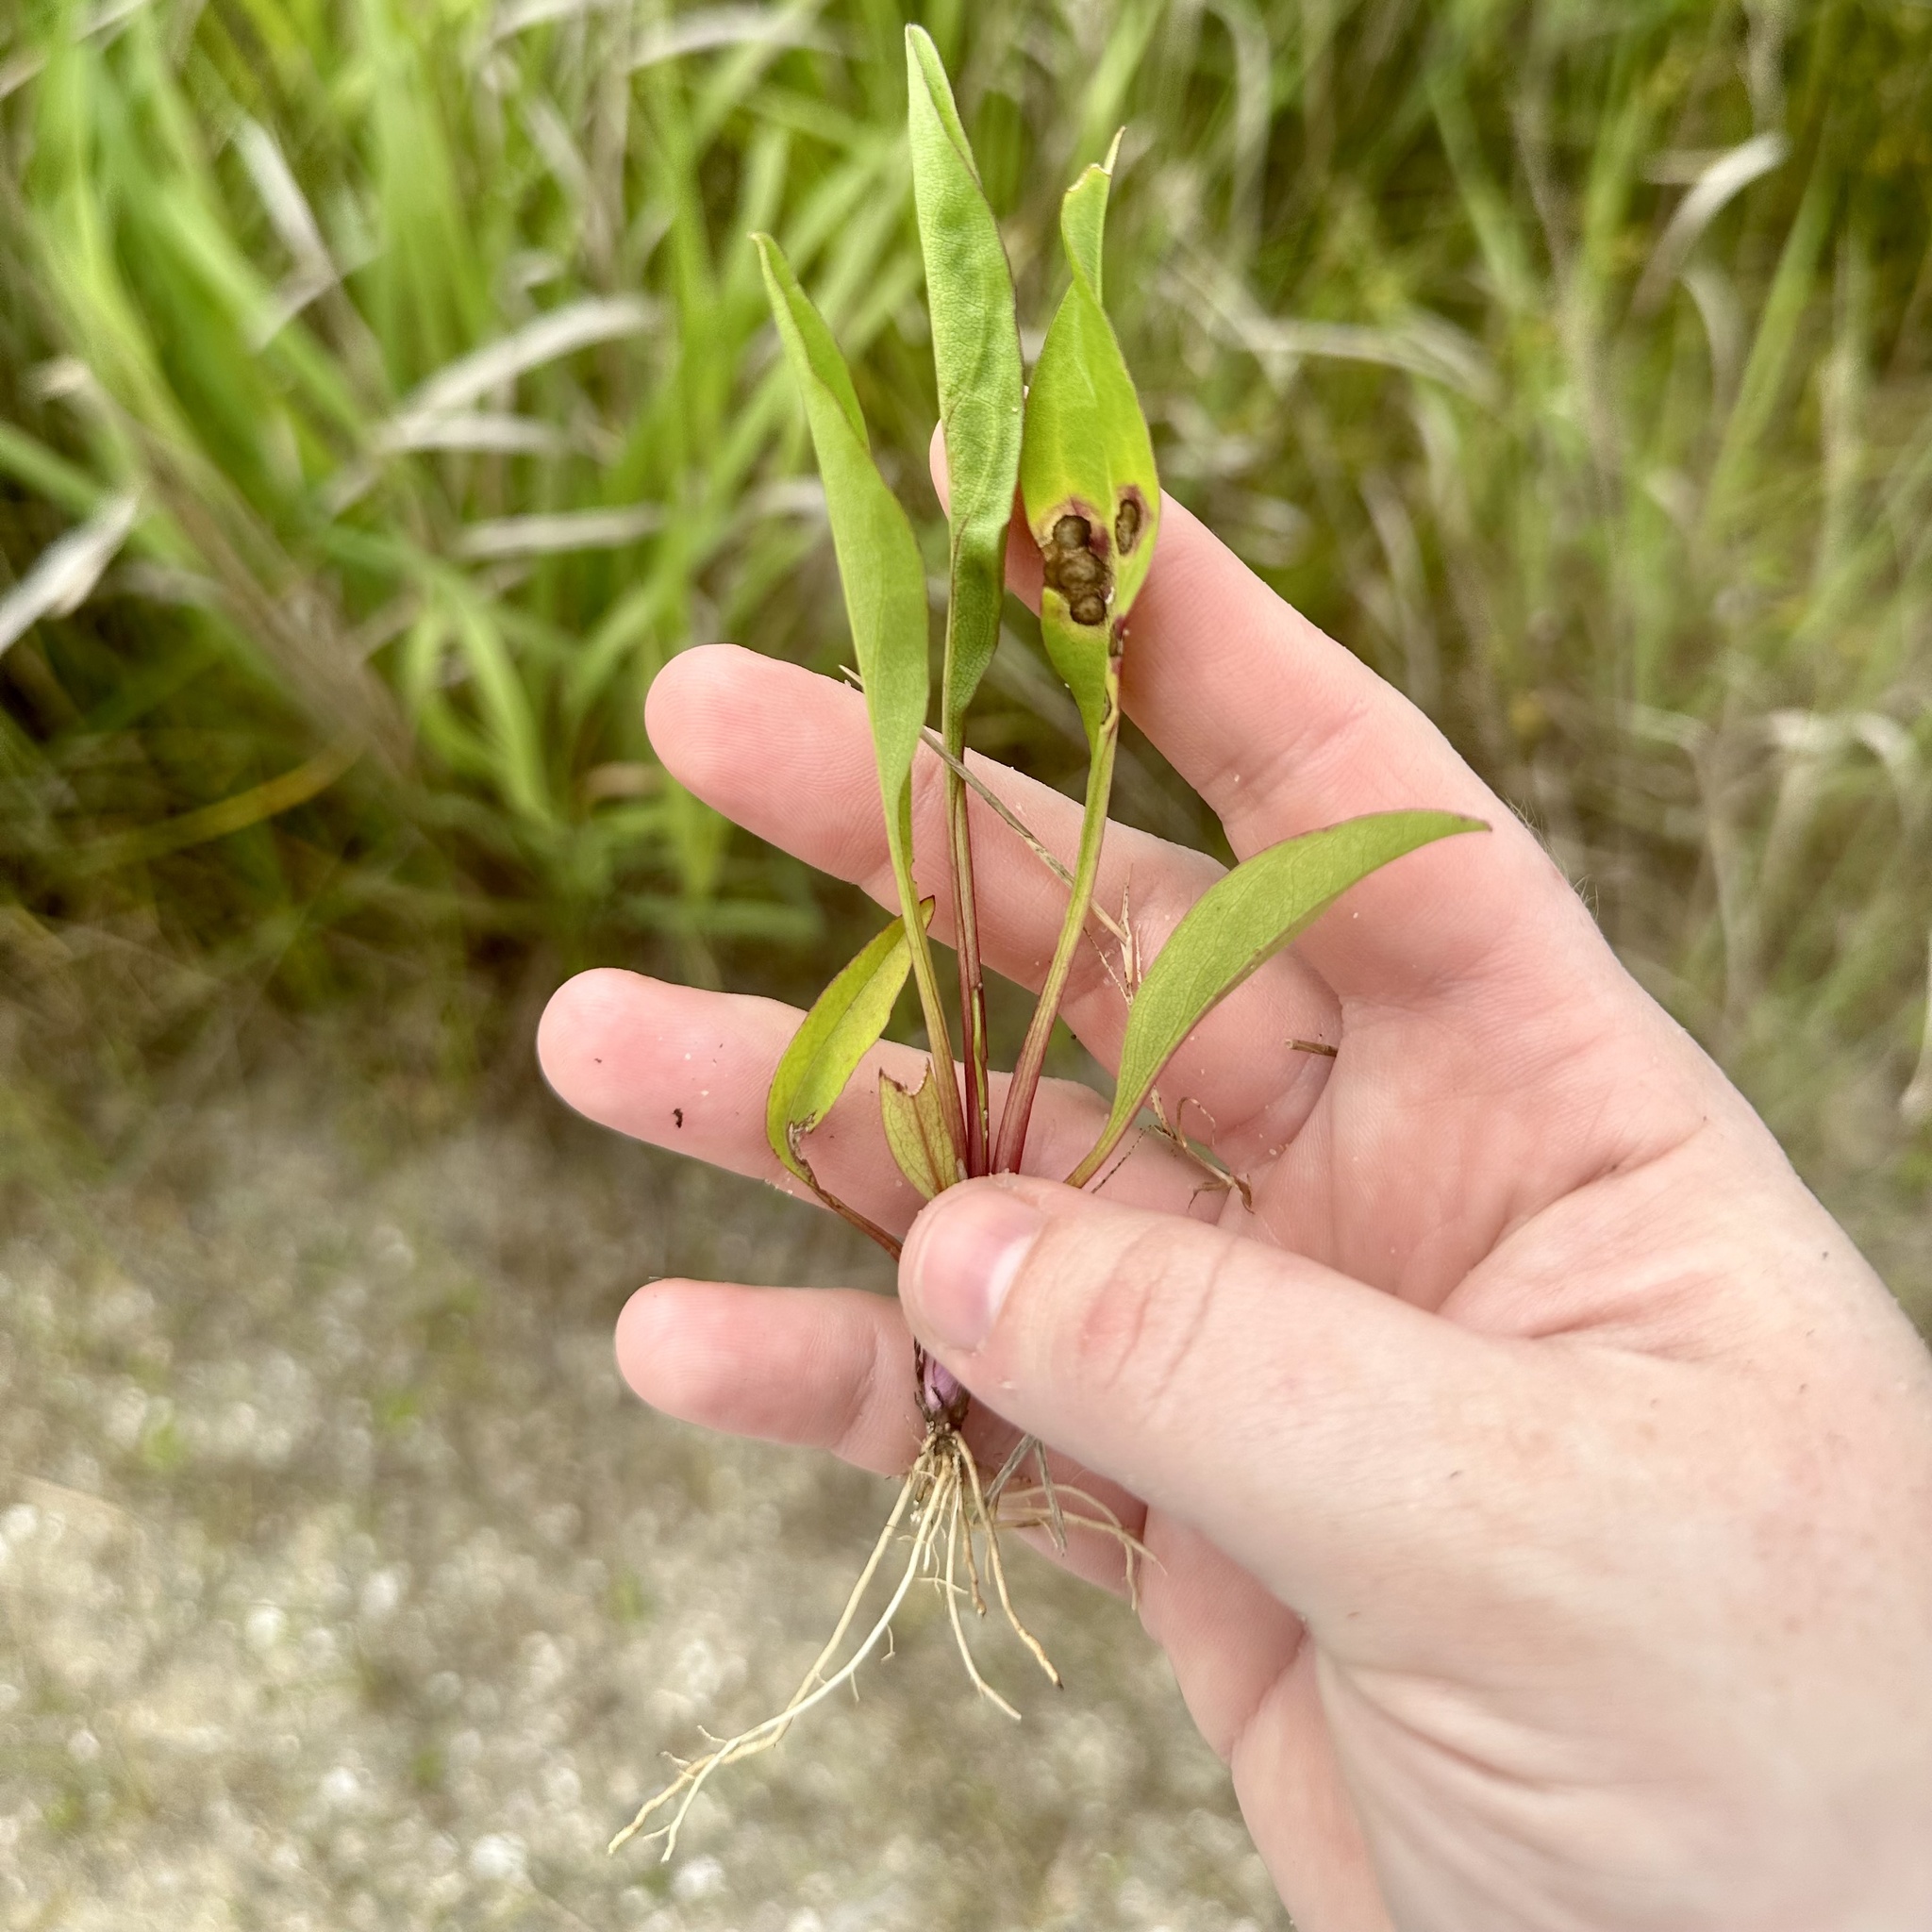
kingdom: Animalia
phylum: Arthropoda
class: Insecta
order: Diptera
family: Cecidomyiidae
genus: Asteromyia
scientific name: Asteromyia carbonifera
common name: Carbonifera goldenrod gall midge
